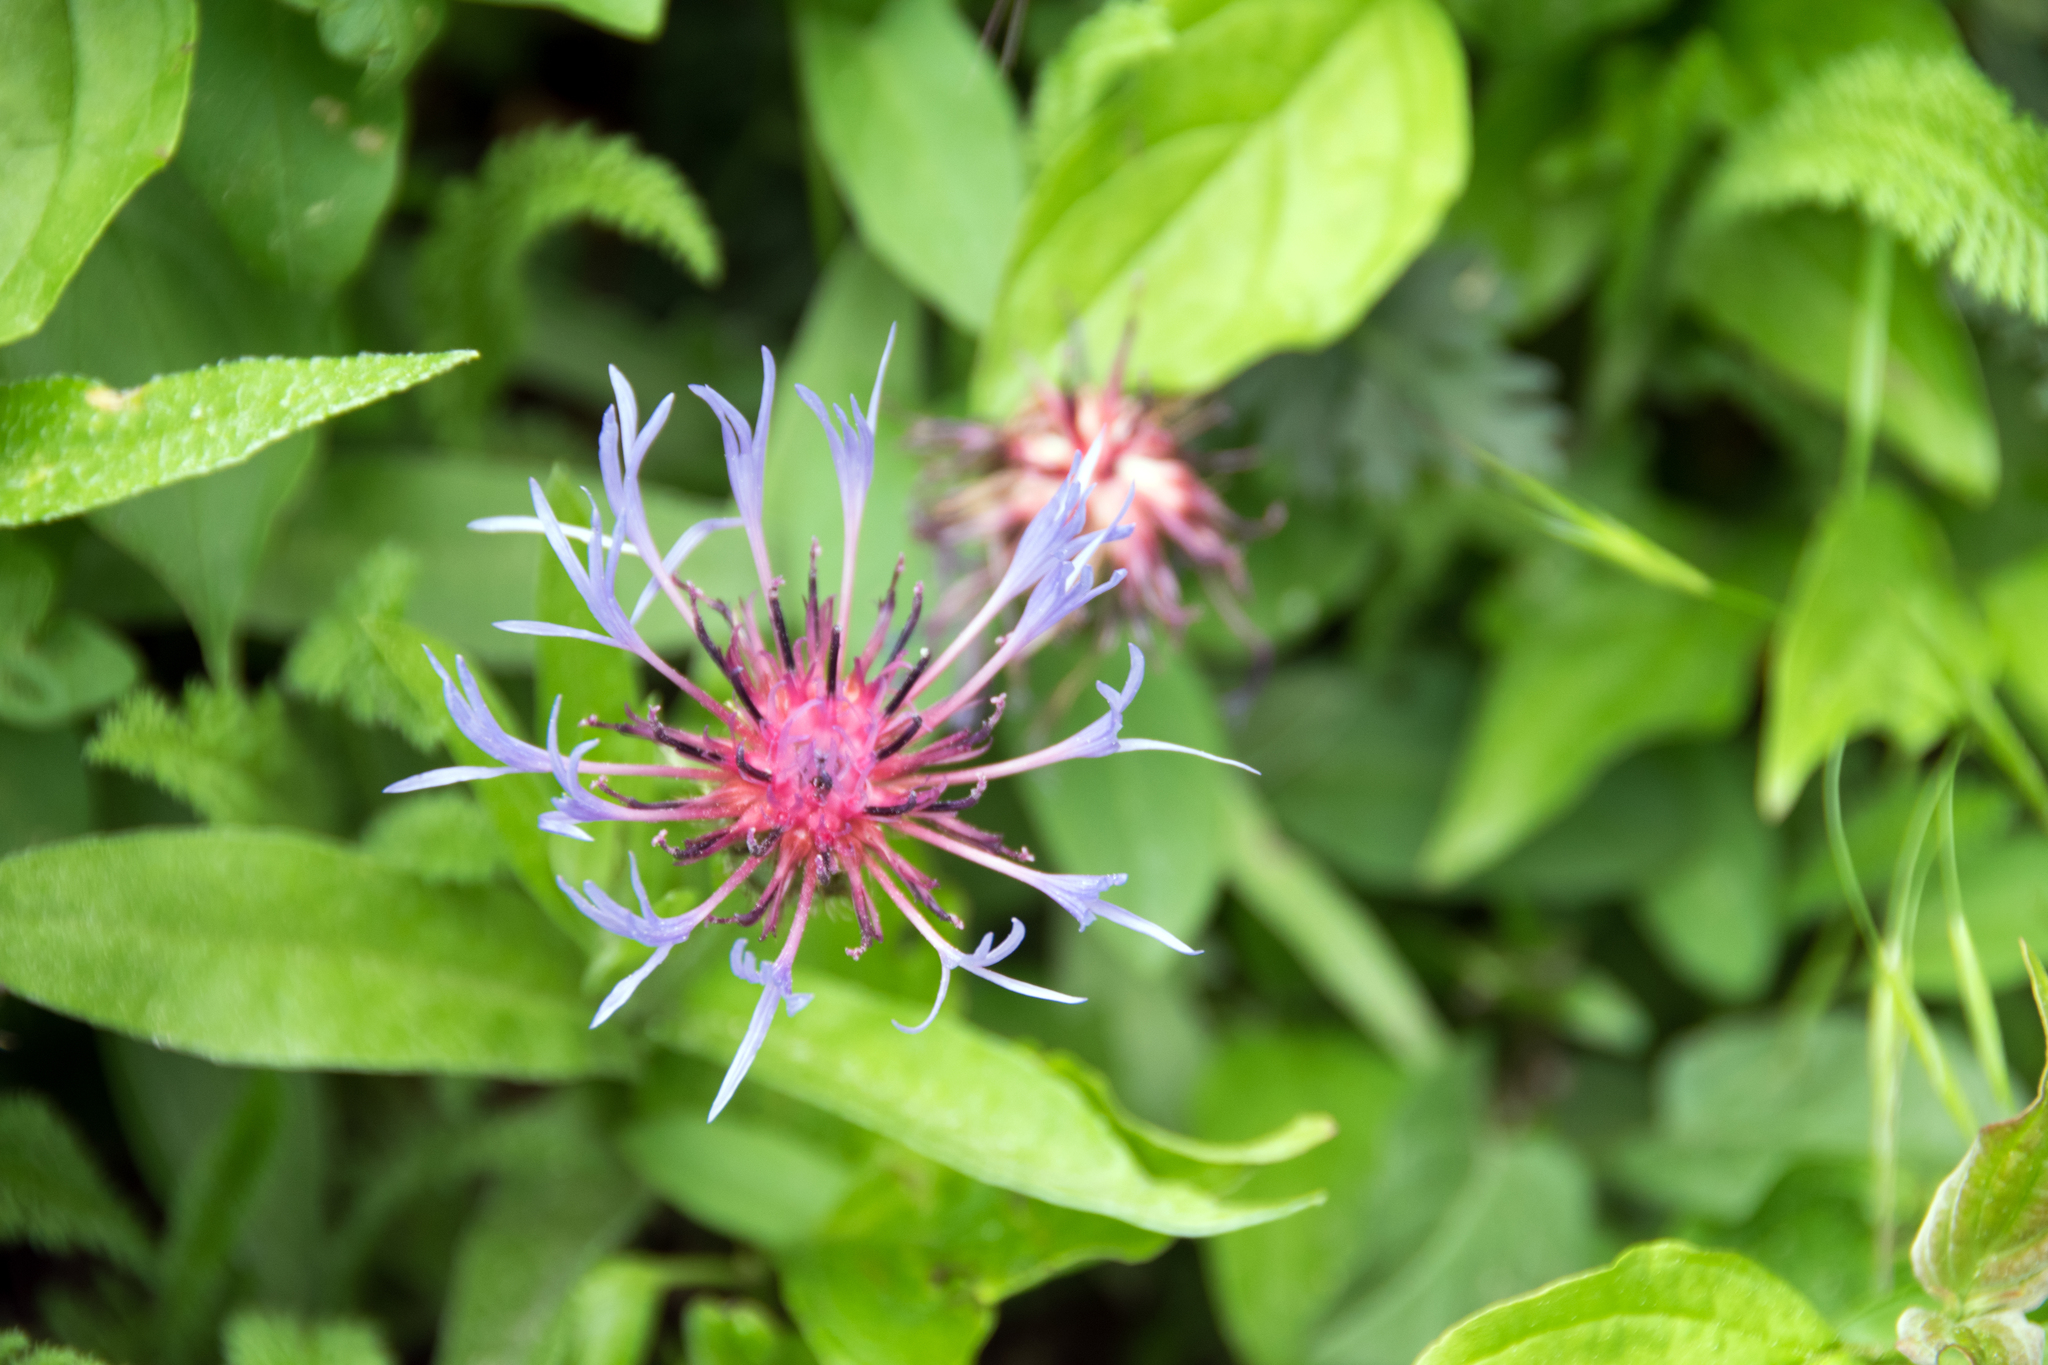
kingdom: Plantae
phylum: Tracheophyta
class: Magnoliopsida
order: Asterales
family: Asteraceae
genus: Centaurea
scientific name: Centaurea triumfettii
